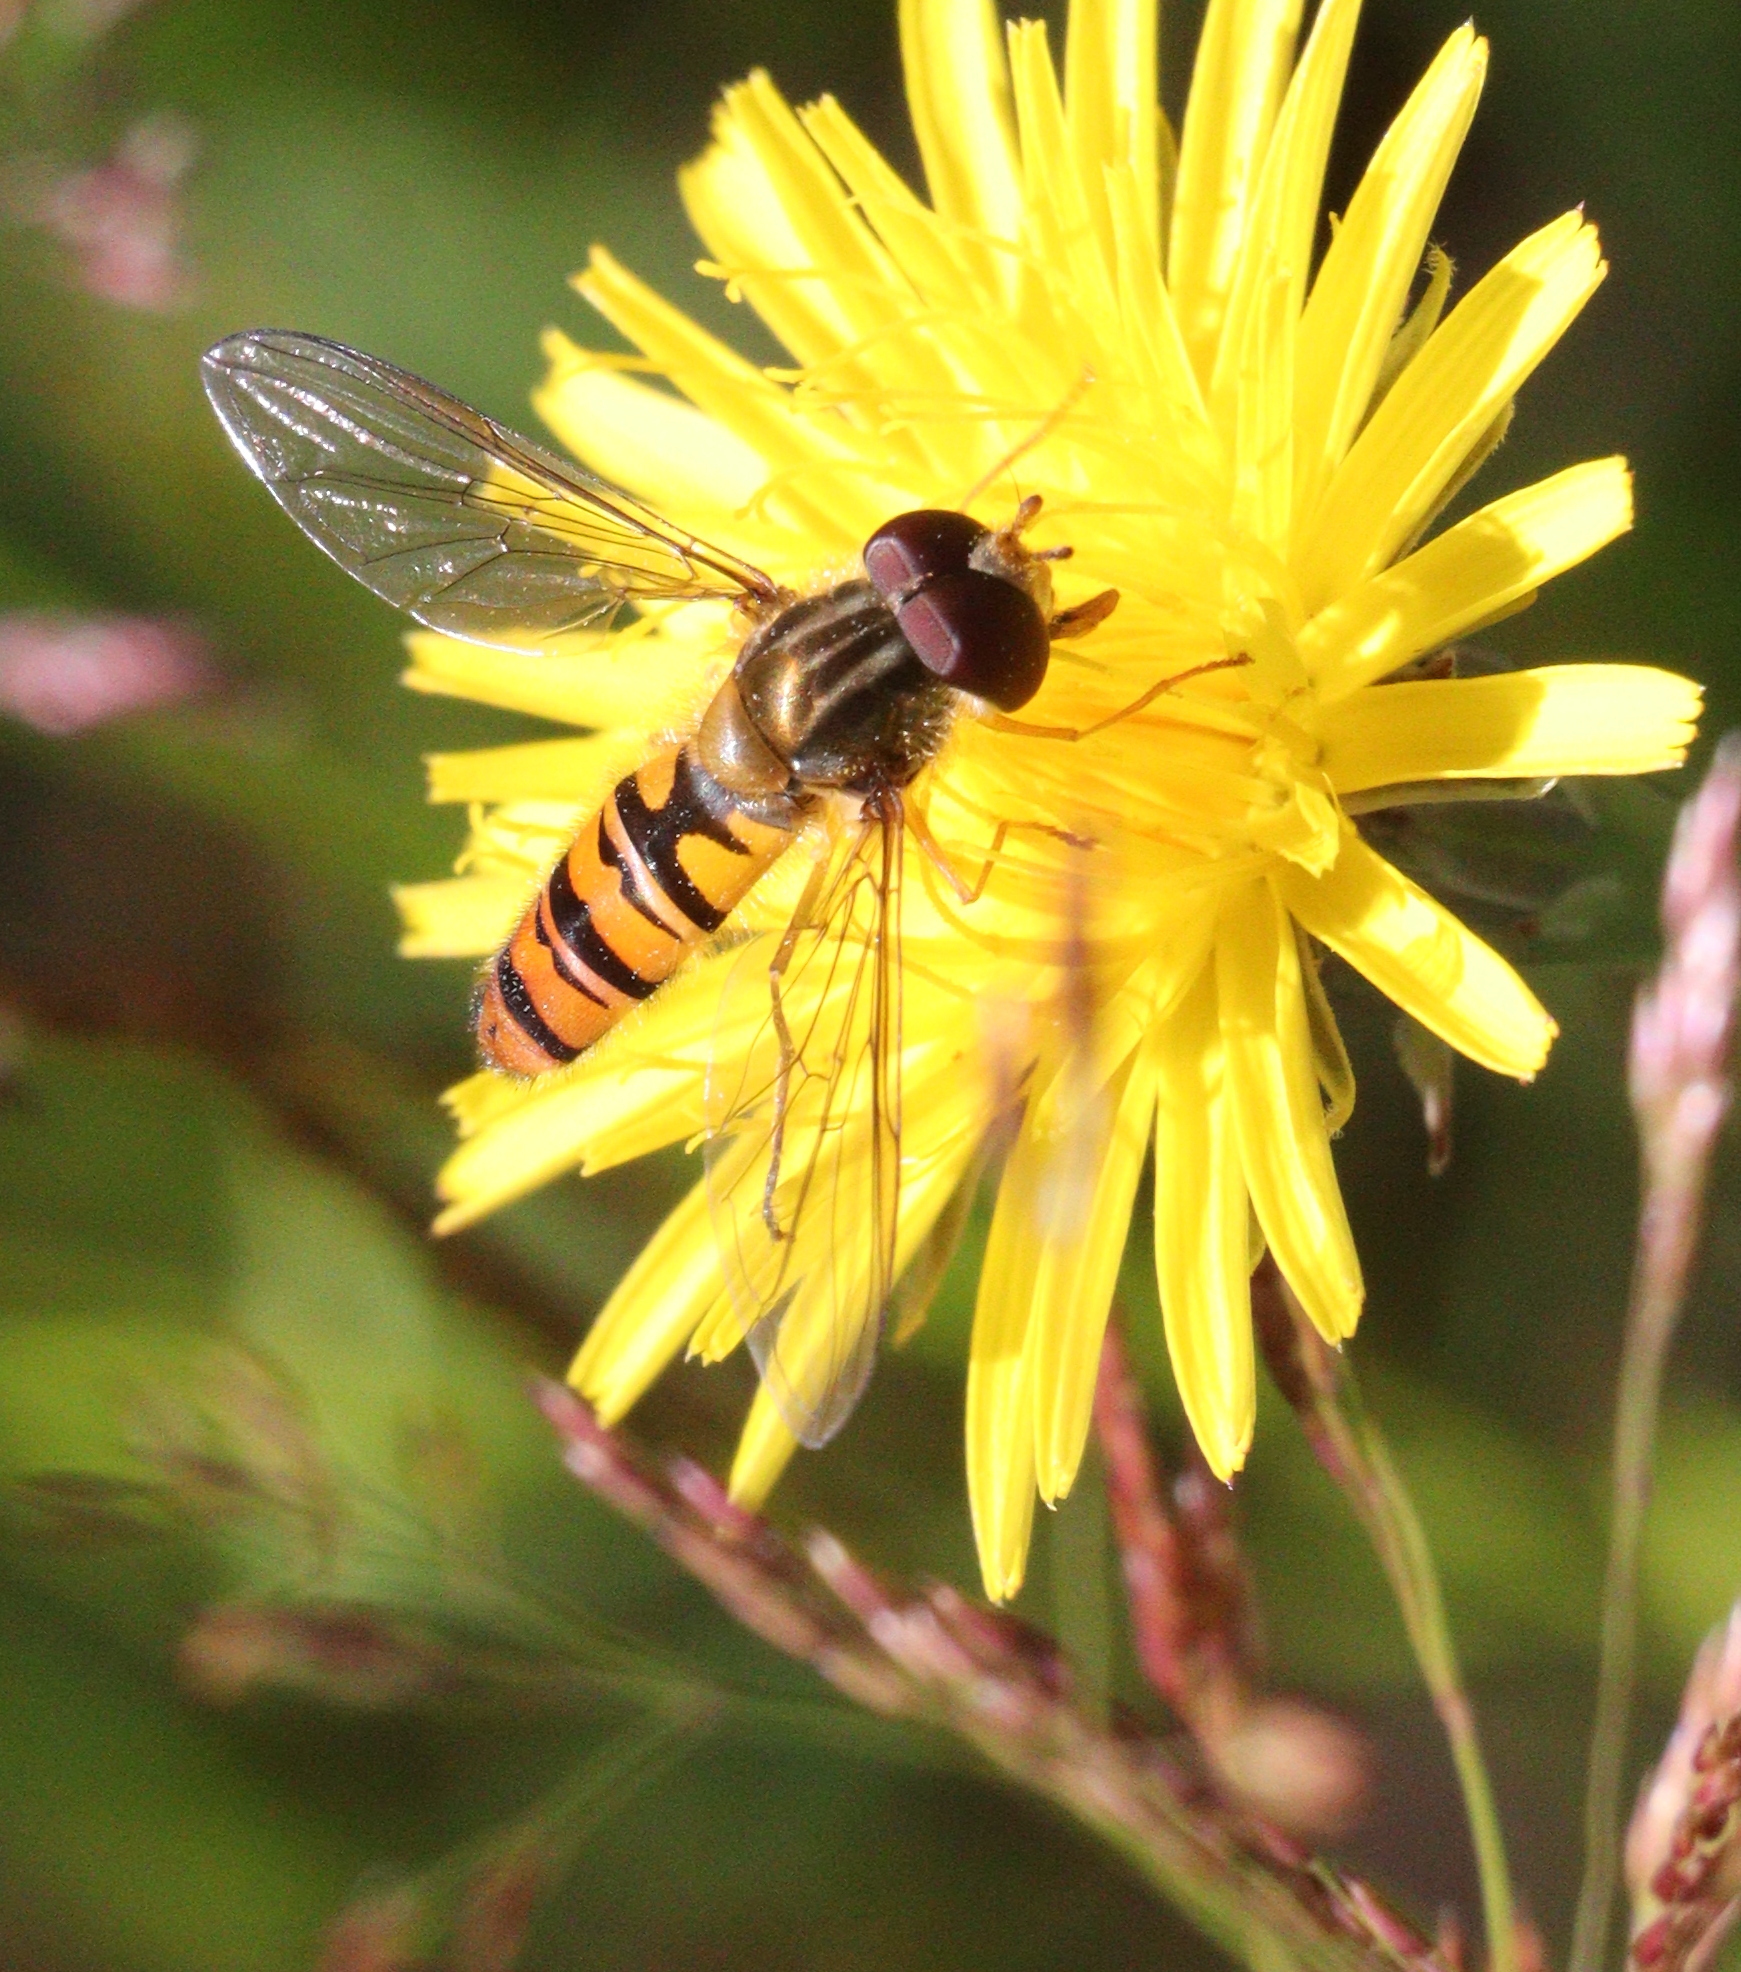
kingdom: Animalia
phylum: Arthropoda
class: Insecta
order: Diptera
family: Syrphidae
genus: Episyrphus
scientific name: Episyrphus balteatus
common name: Marmalade hoverfly
